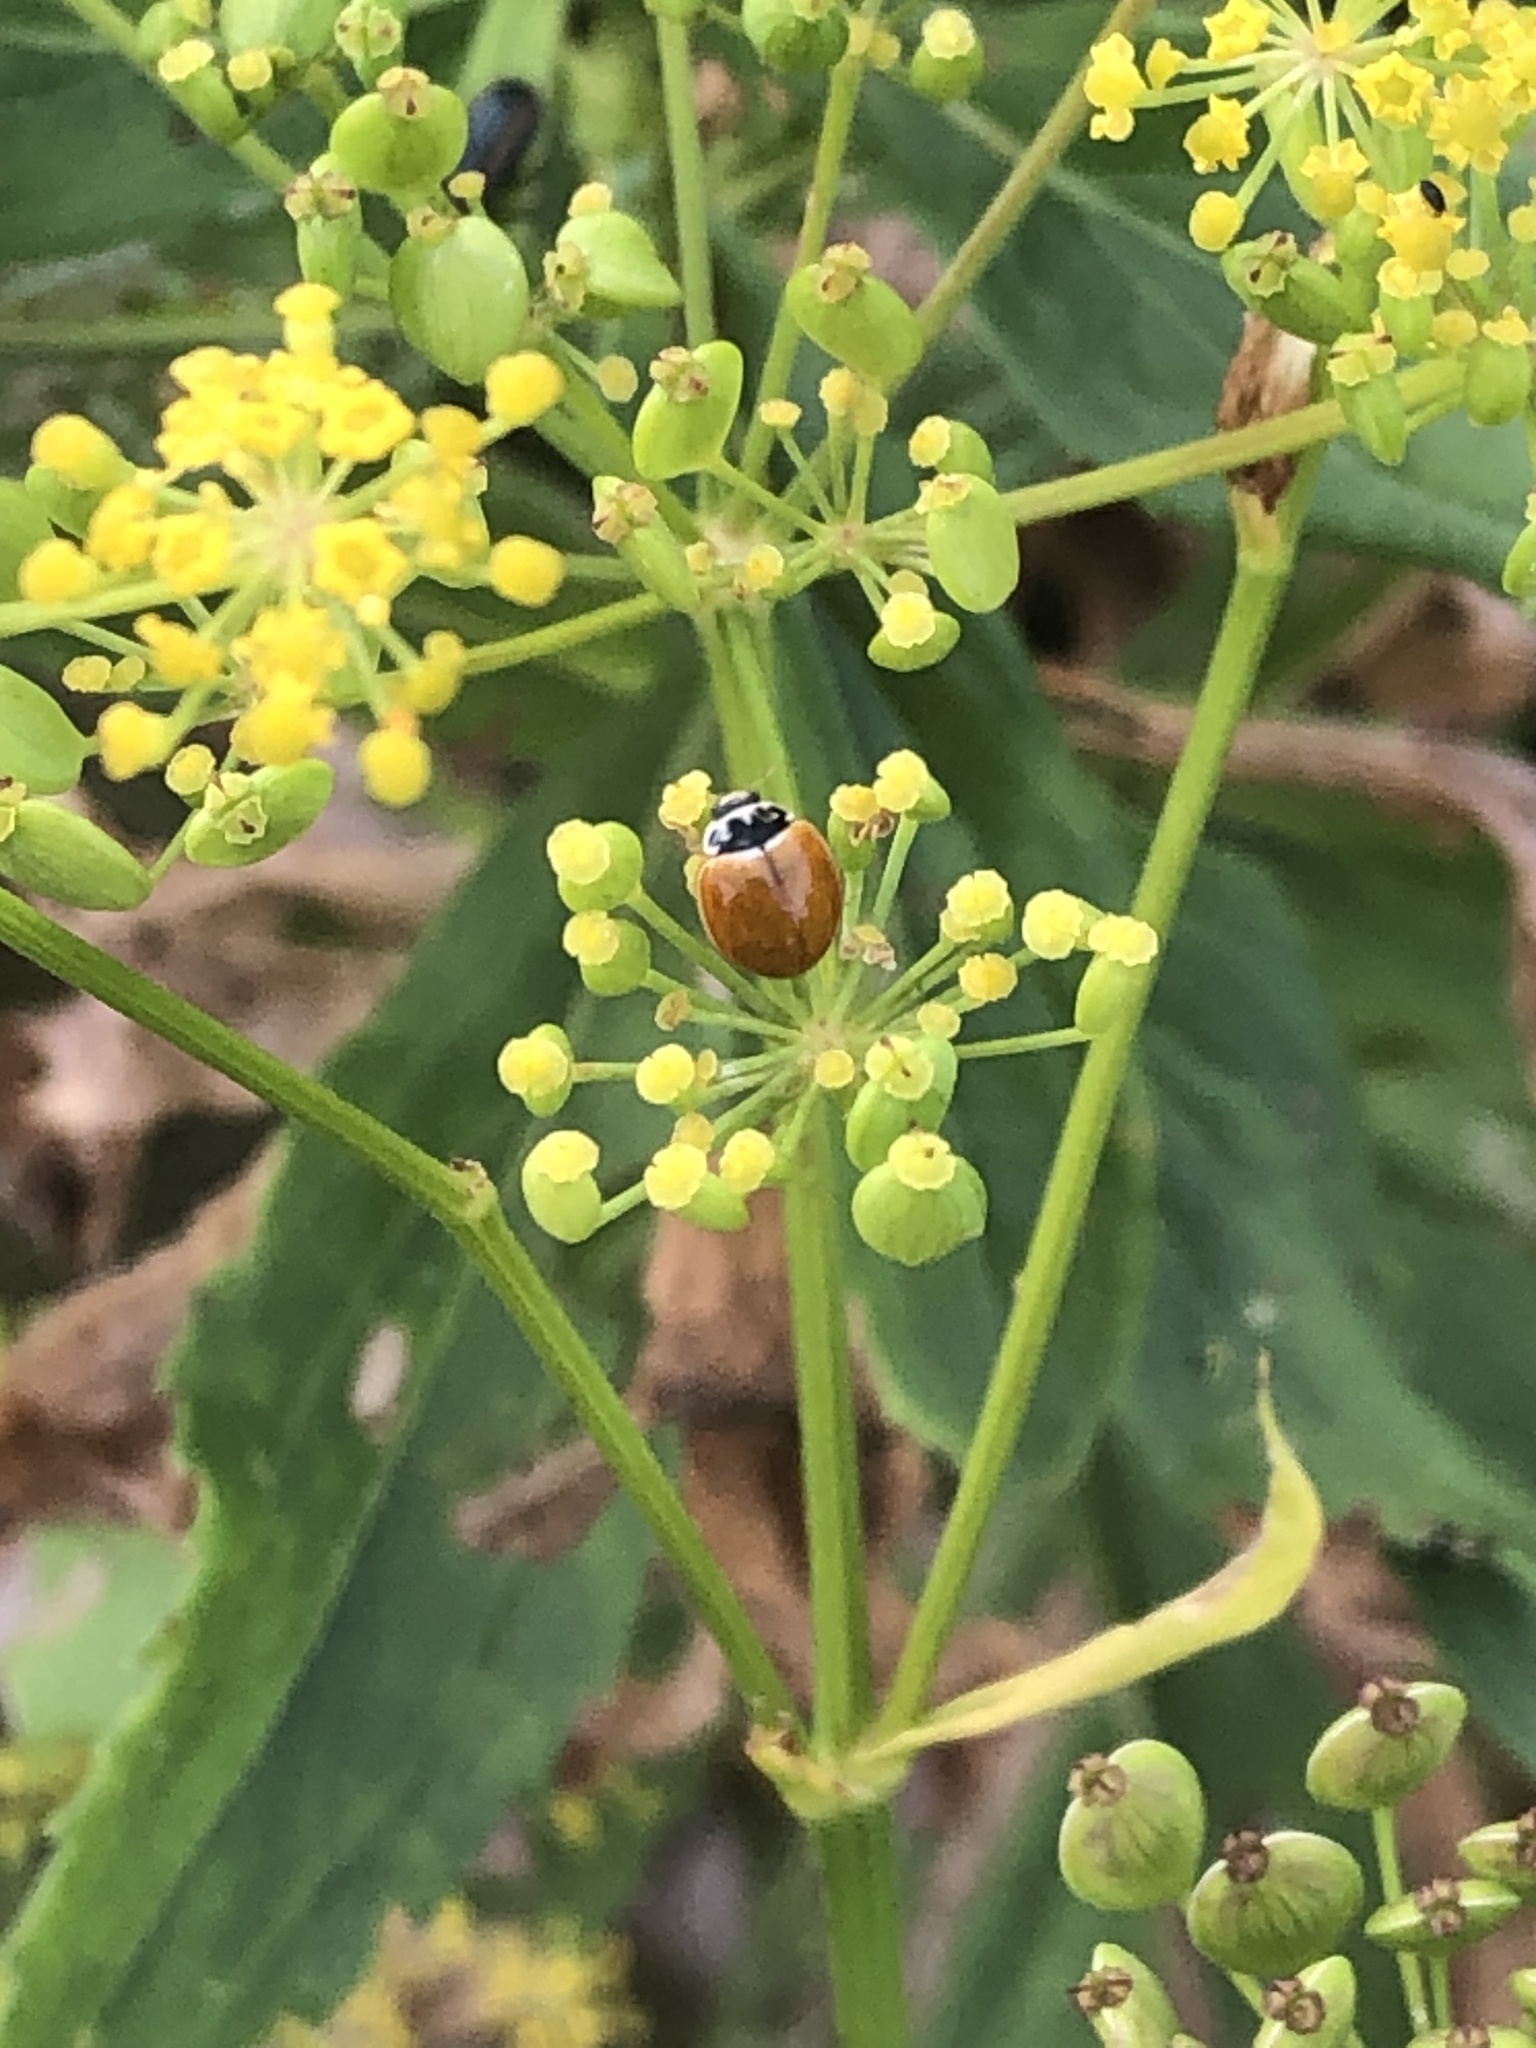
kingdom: Animalia
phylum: Arthropoda
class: Insecta
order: Coleoptera
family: Coccinellidae
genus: Cycloneda
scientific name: Cycloneda munda
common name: Polished lady beetle
